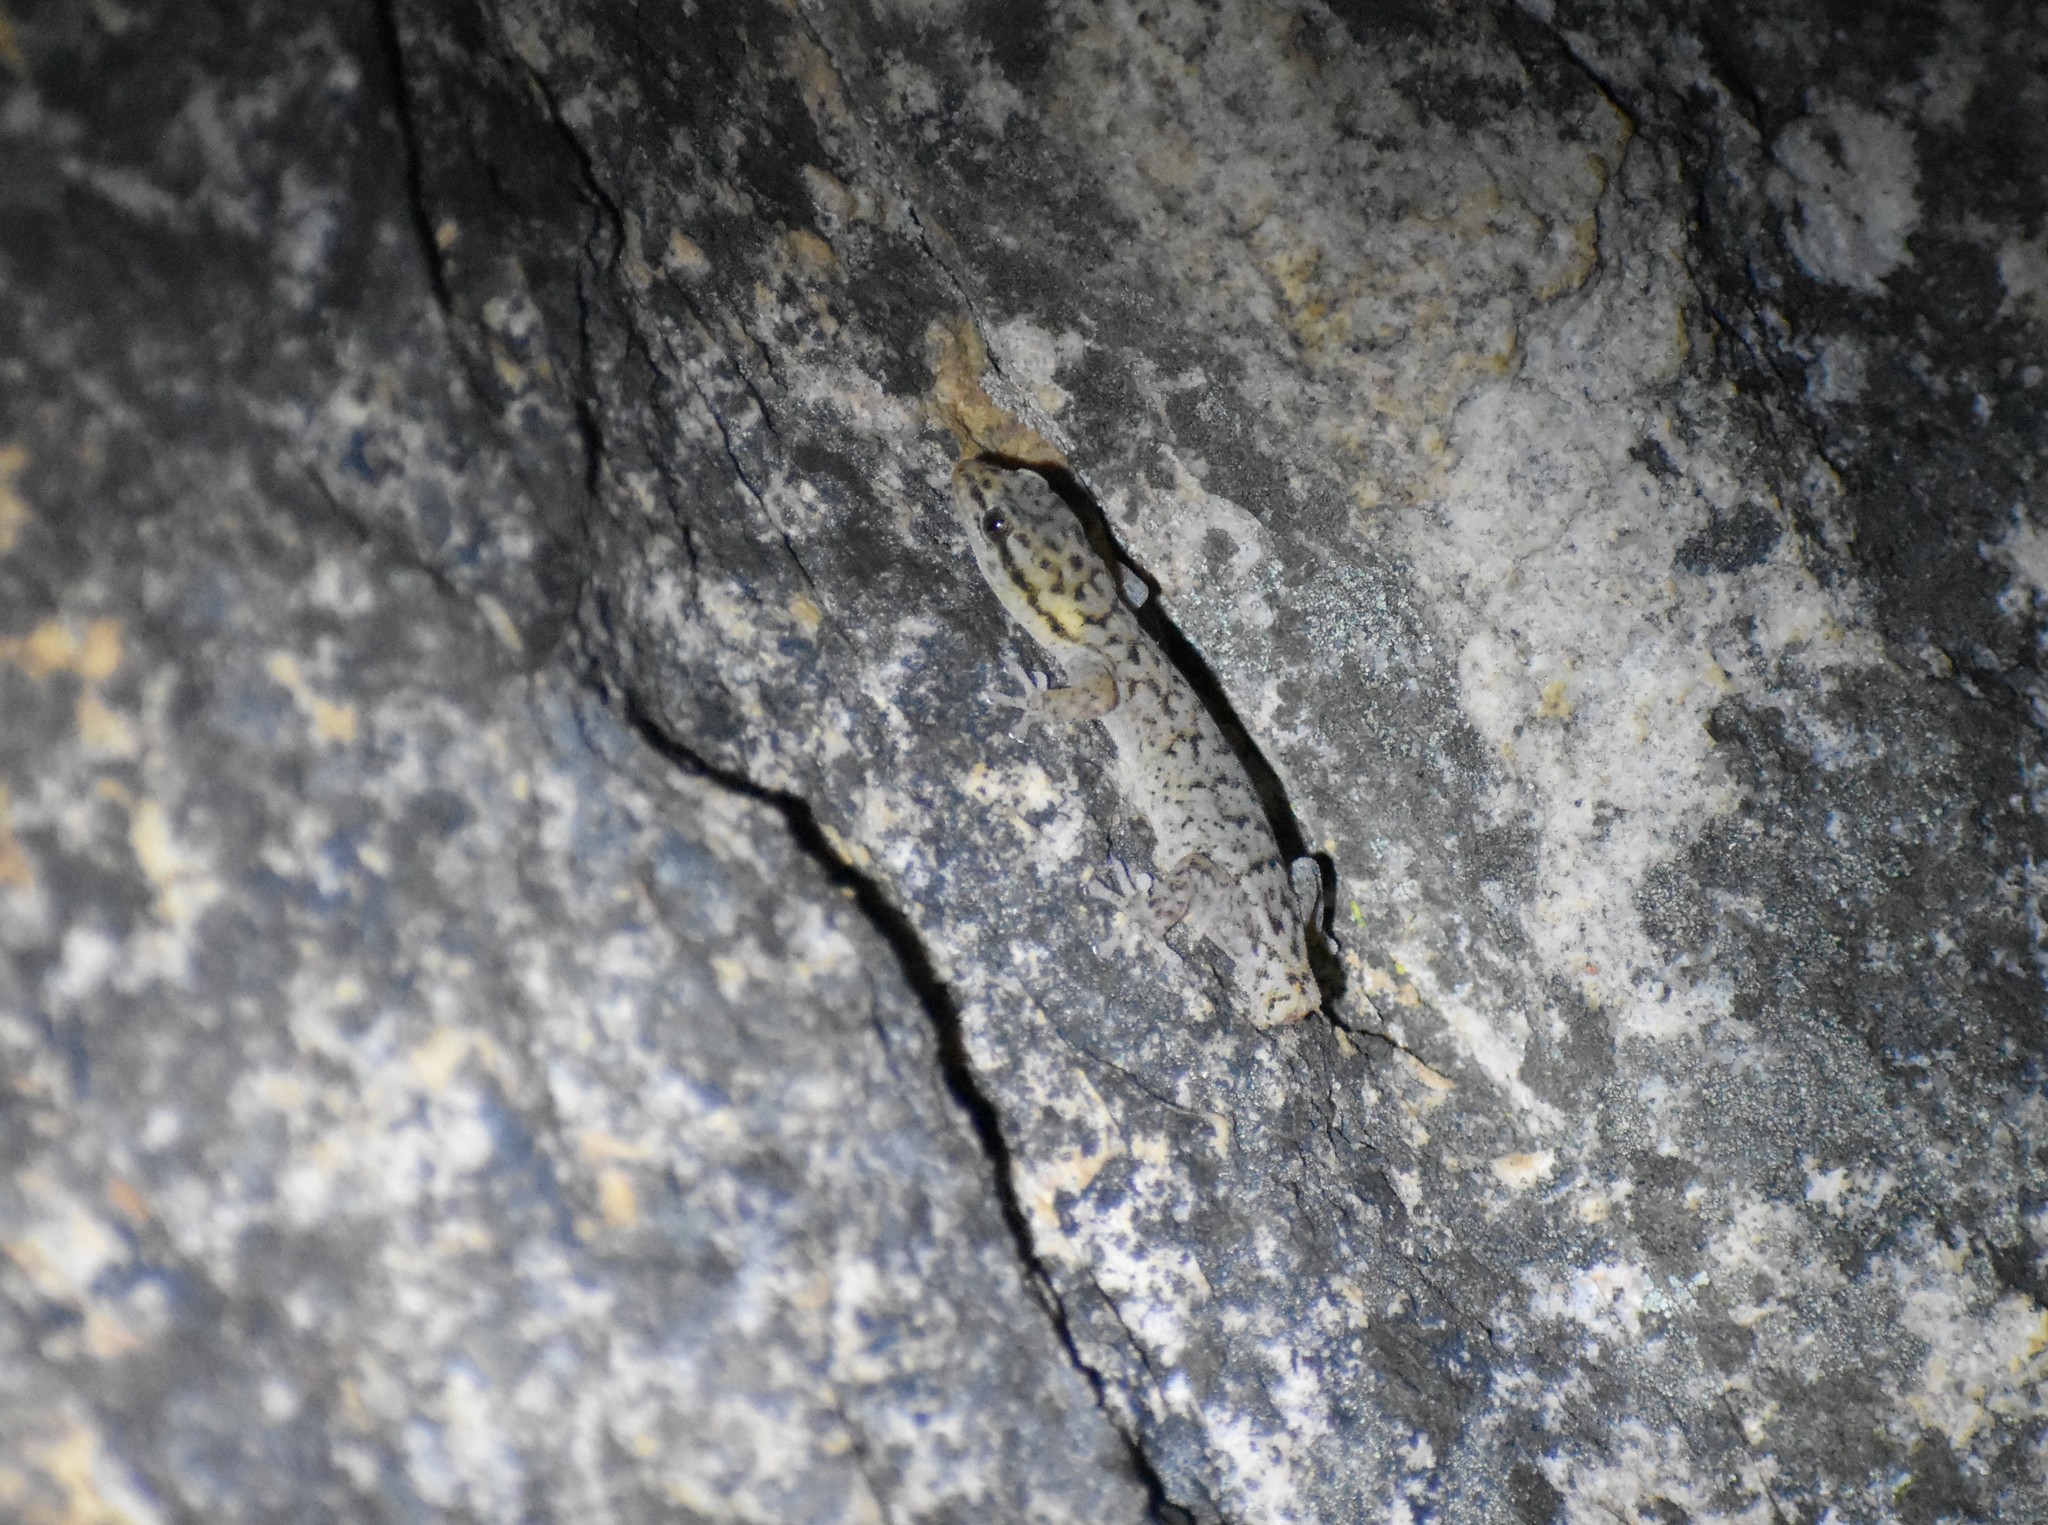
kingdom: Animalia
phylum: Chordata
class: Squamata
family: Gekkonidae
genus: Goggia
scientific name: Goggia hewitti
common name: Hewitt’s dwarf leaf-toed gecko
